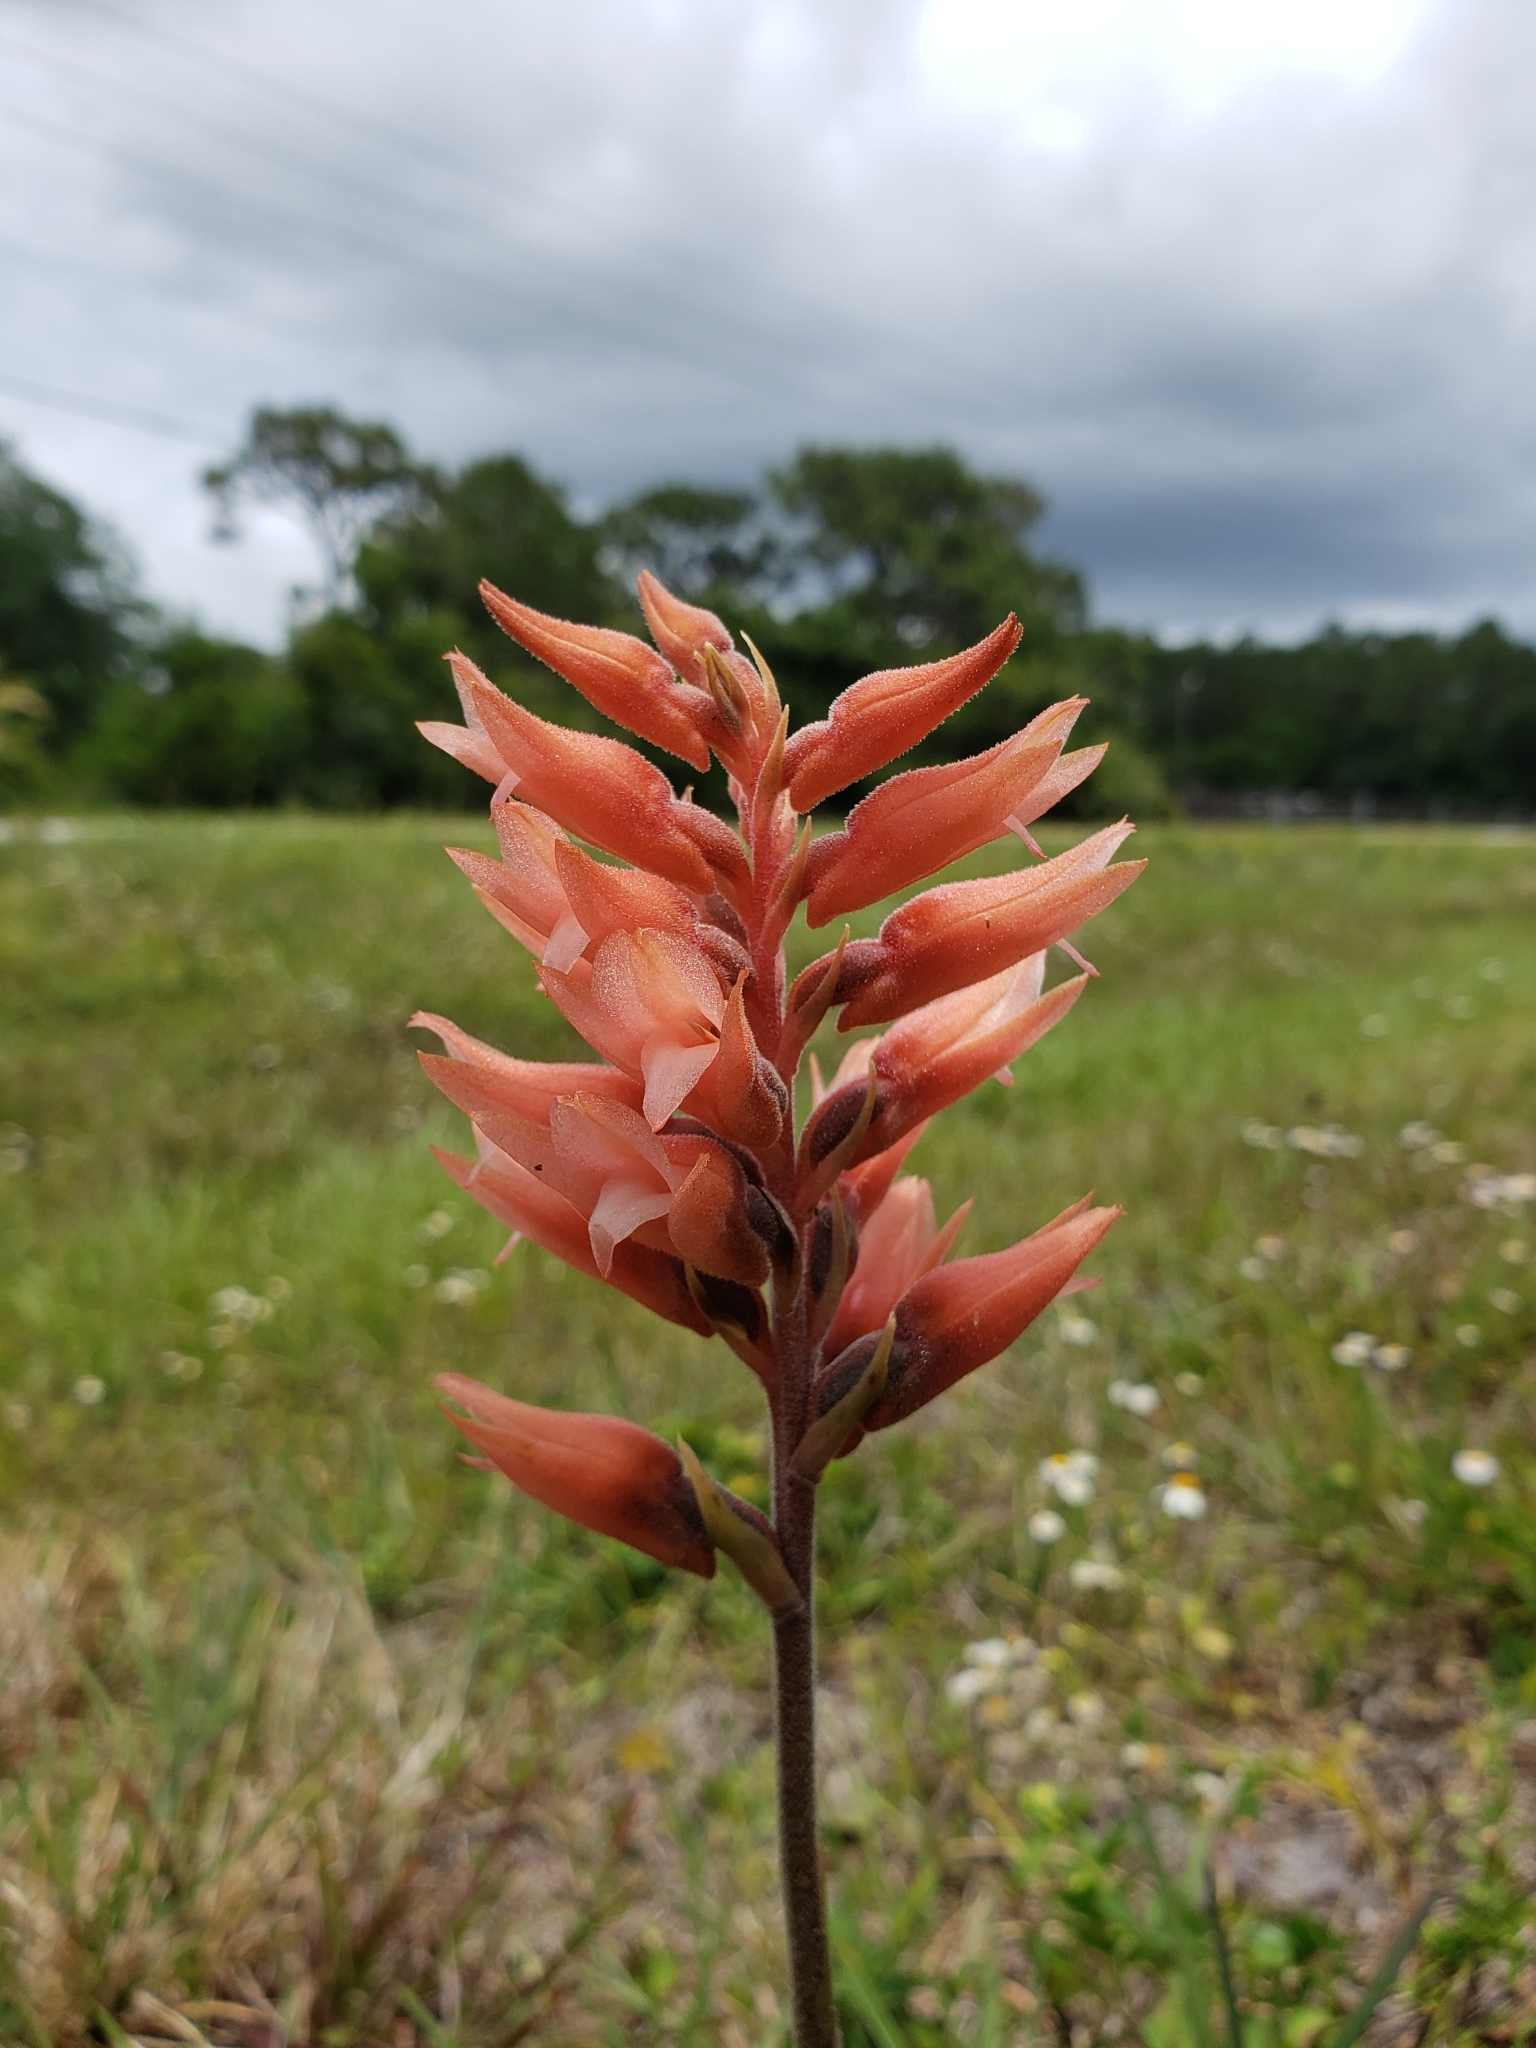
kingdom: Plantae
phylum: Tracheophyta
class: Liliopsida
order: Asparagales
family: Orchidaceae
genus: Sacoila
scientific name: Sacoila lanceolata
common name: Leafless beaked ladiestresses
